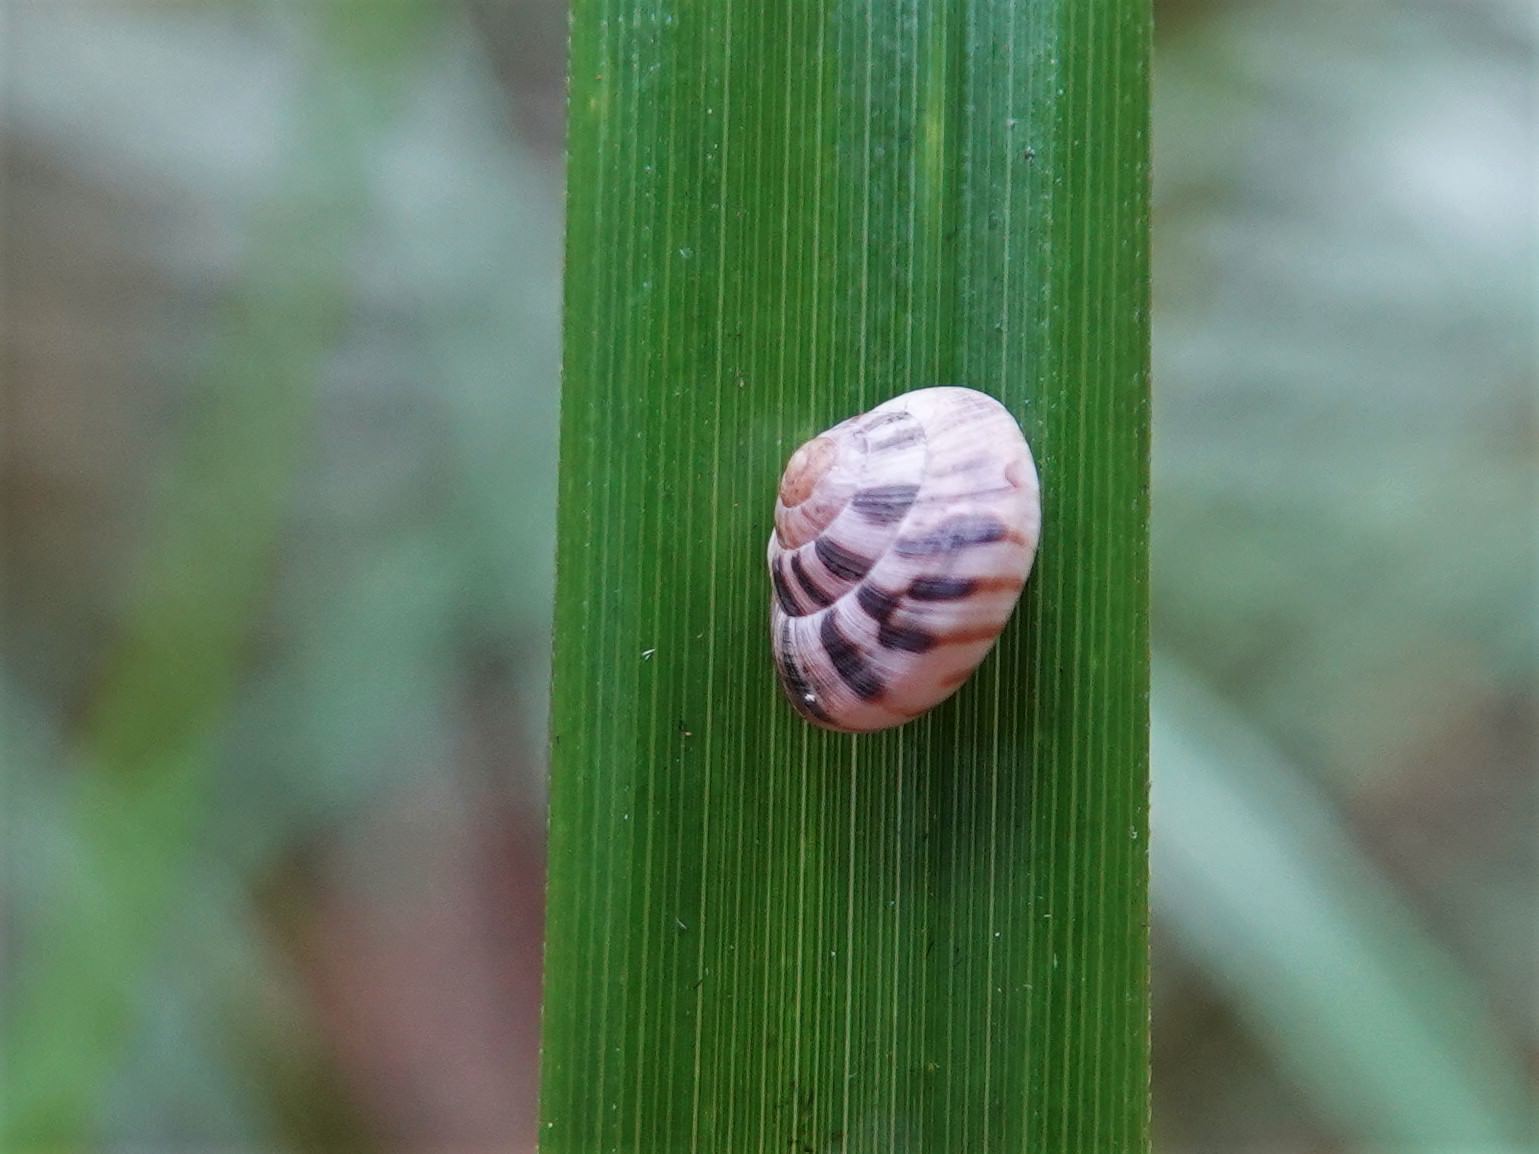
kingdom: Animalia
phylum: Mollusca
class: Gastropoda
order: Stylommatophora
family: Charopidae
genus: Serpho
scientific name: Serpho
